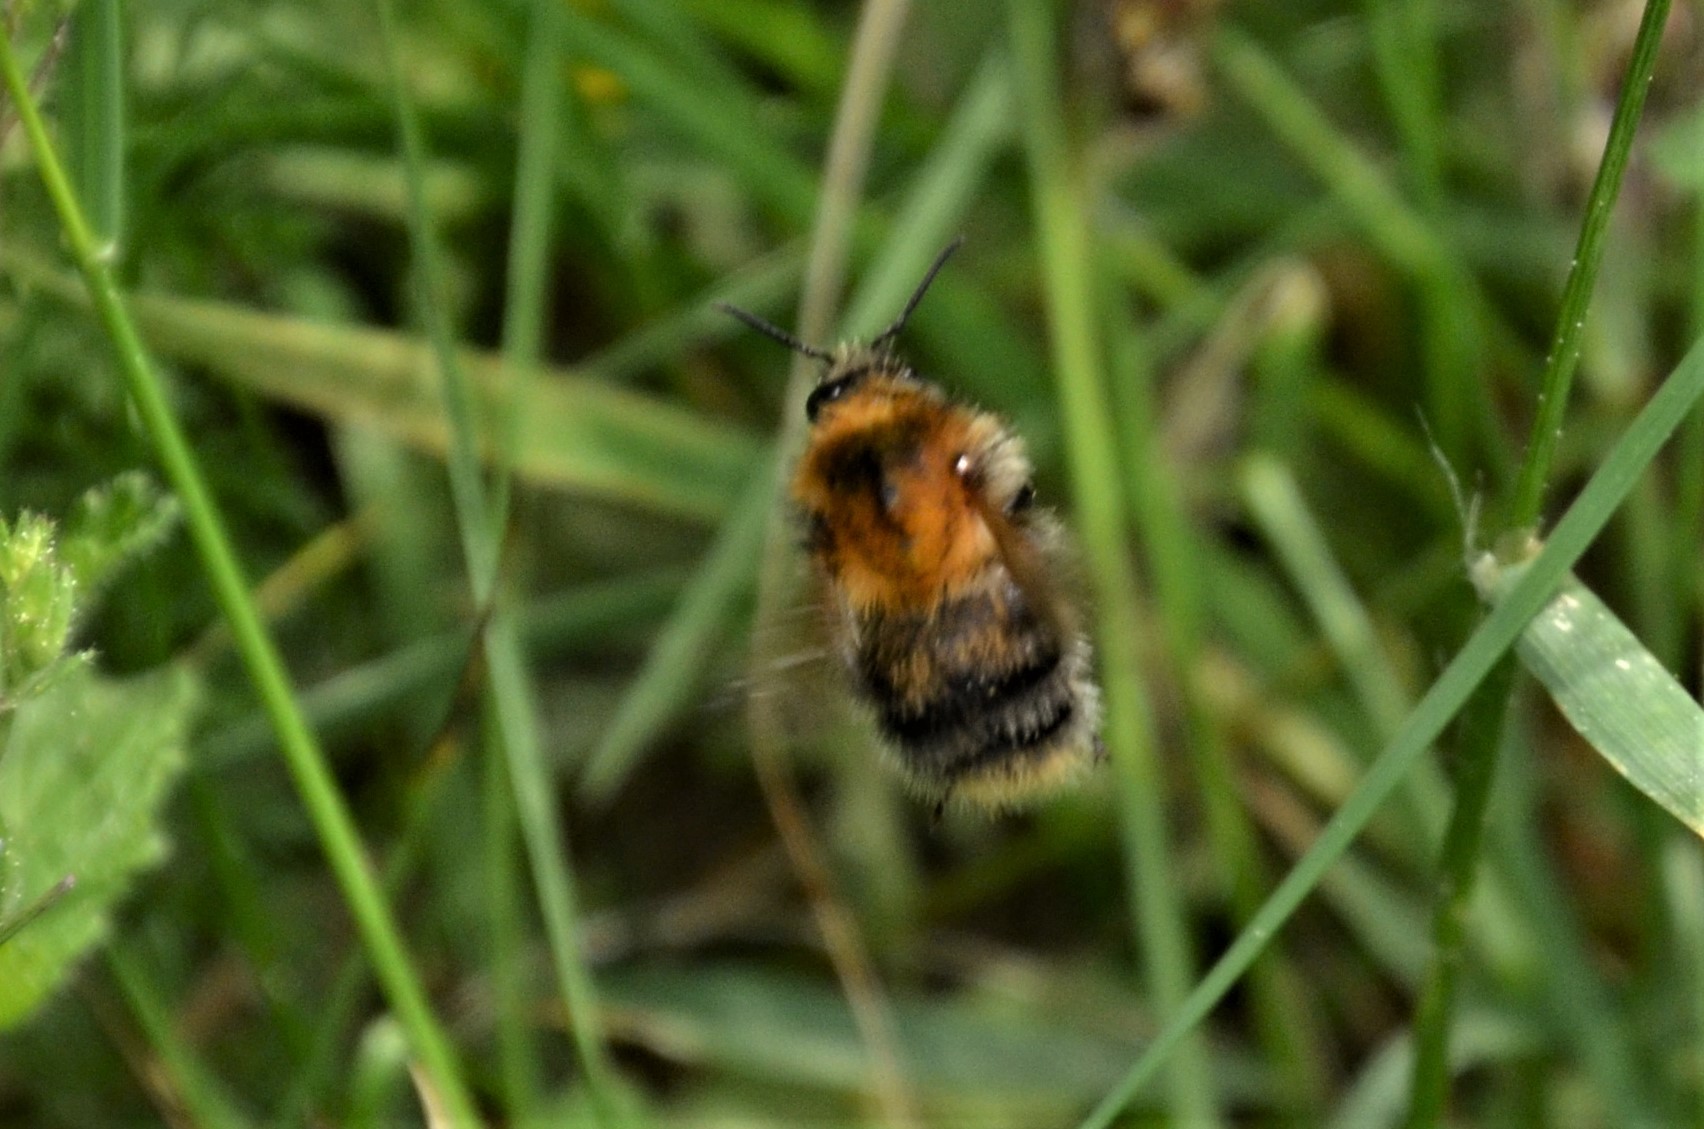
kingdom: Animalia
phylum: Arthropoda
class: Insecta
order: Hymenoptera
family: Apidae
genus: Bombus
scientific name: Bombus pascuorum
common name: Common carder bee
